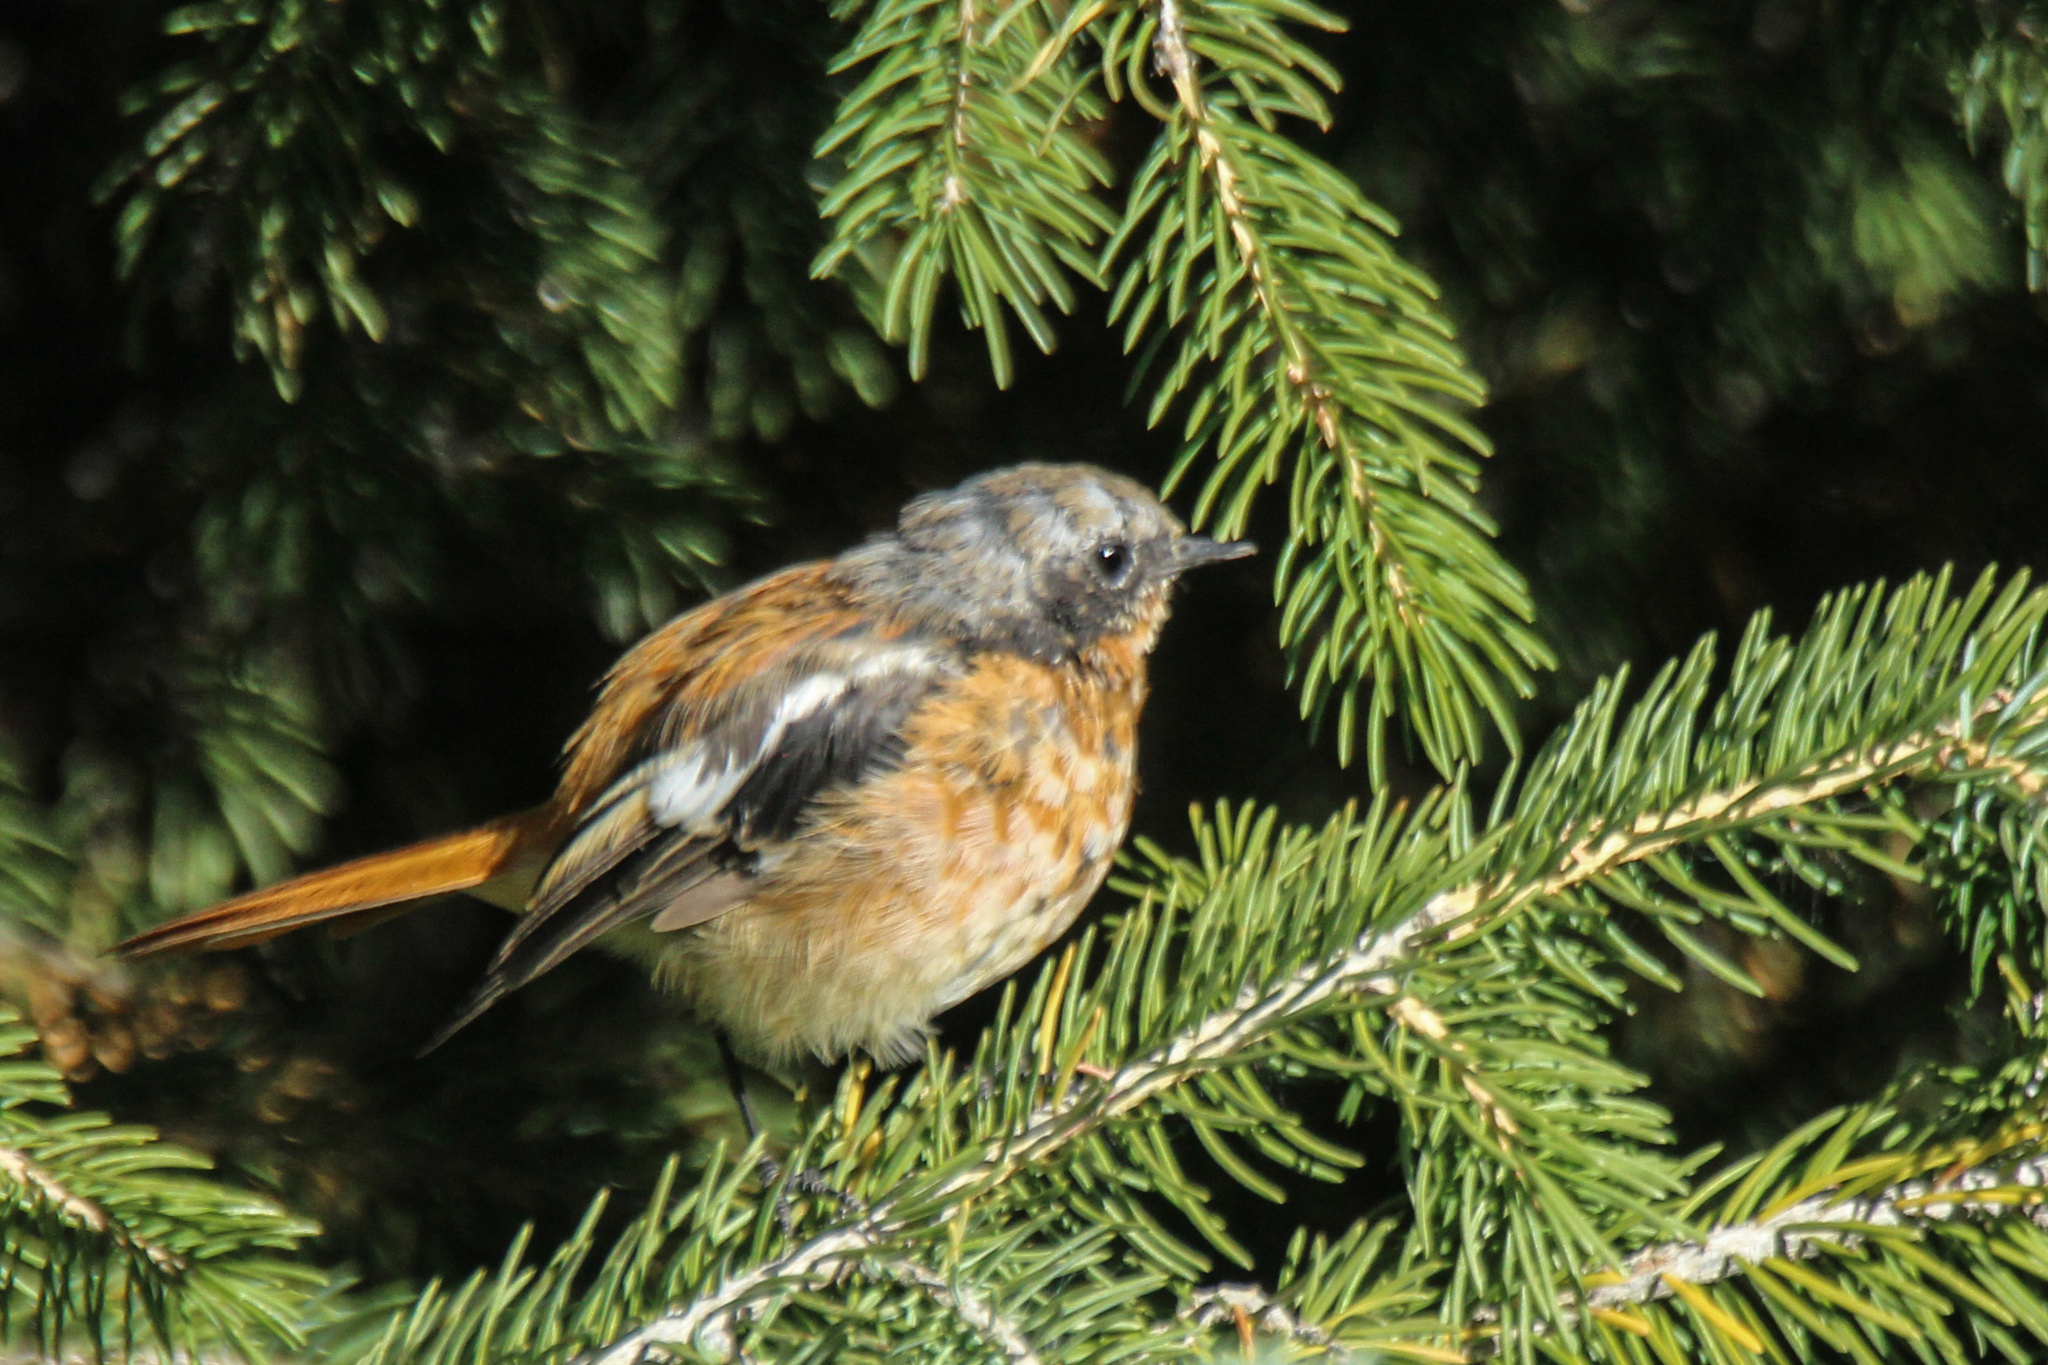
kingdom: Animalia
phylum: Chordata
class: Aves
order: Passeriformes
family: Muscicapidae
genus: Phoenicurus
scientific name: Phoenicurus erythronotus
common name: Eversmann's redstart
